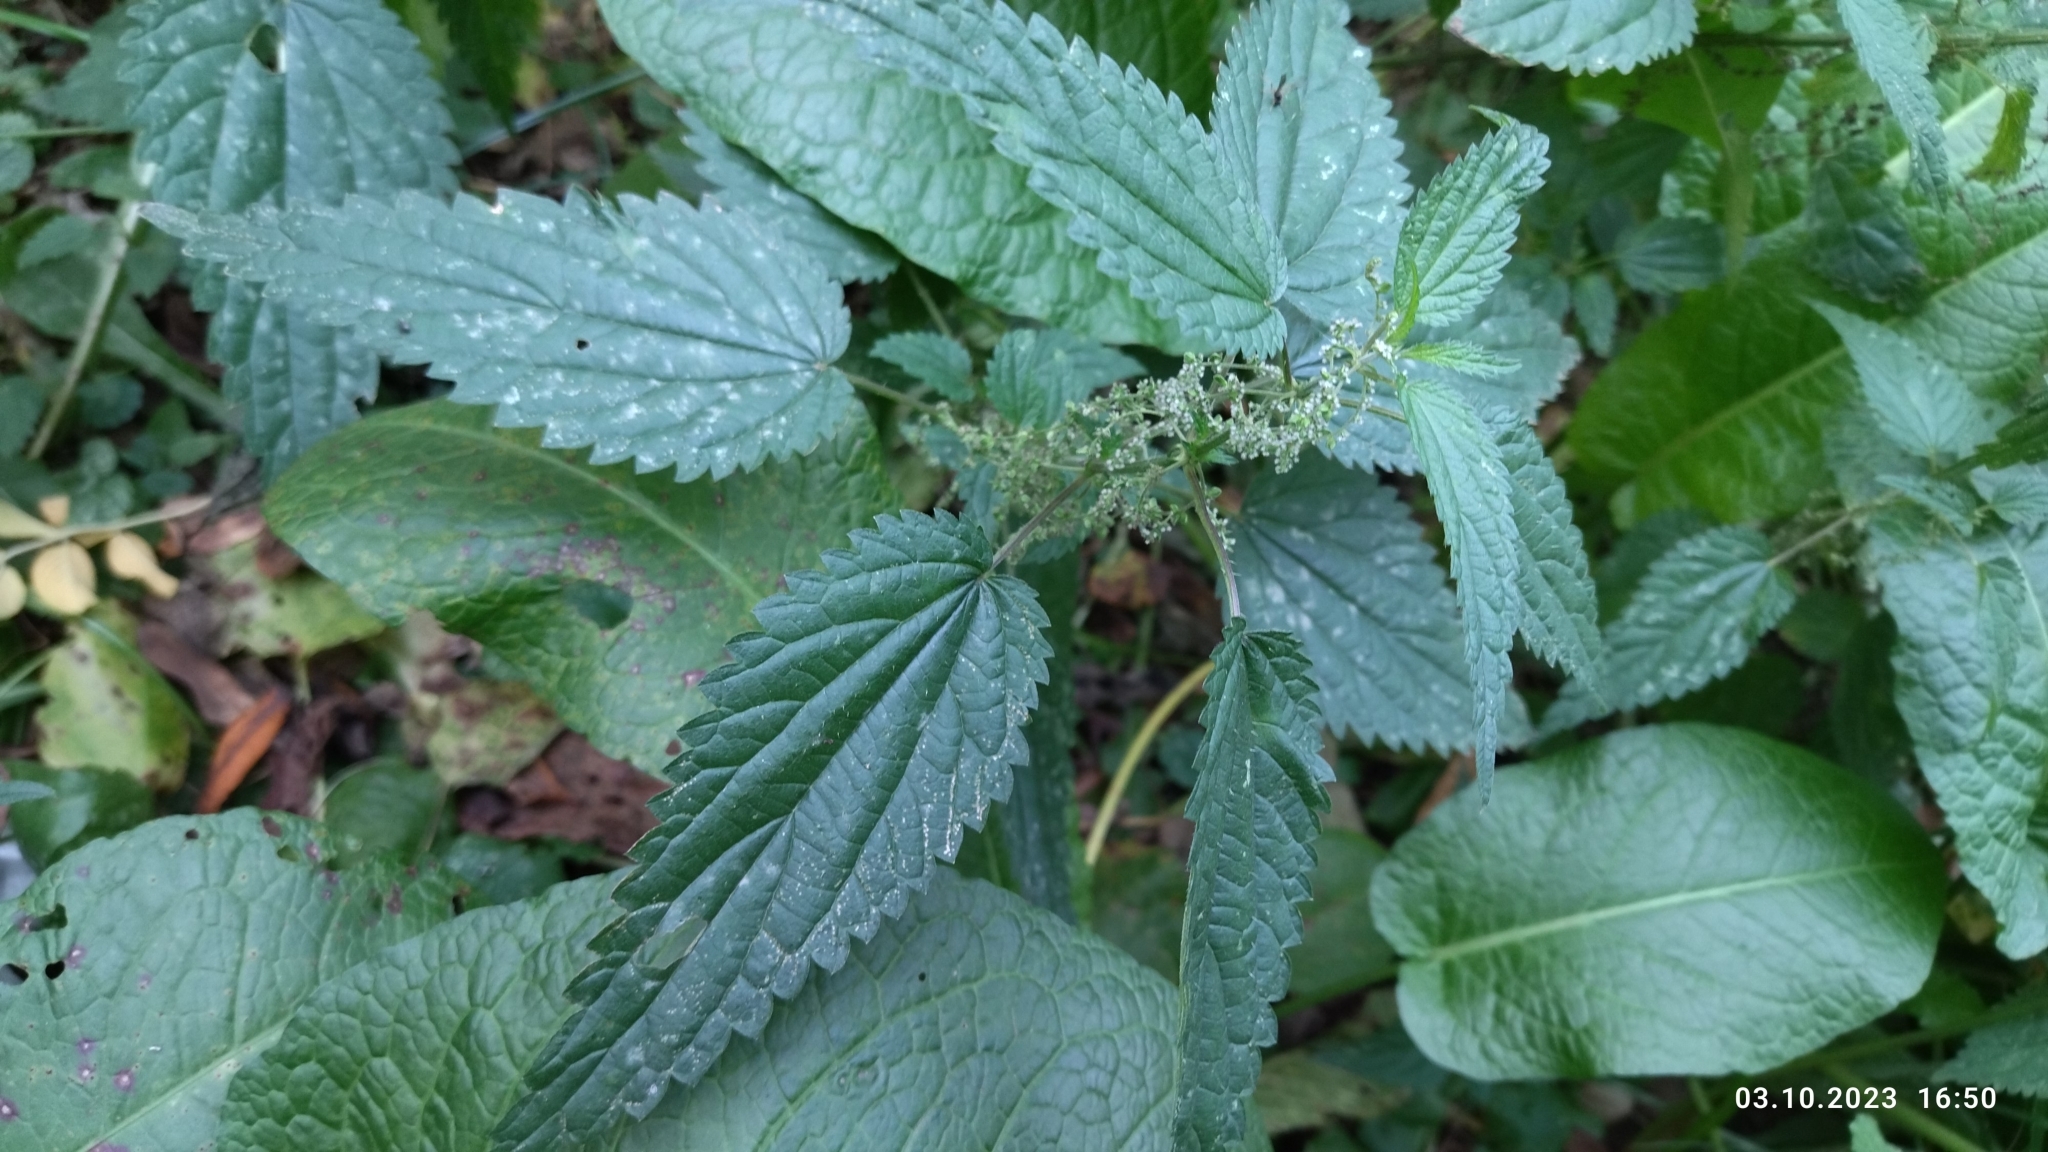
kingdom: Plantae
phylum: Tracheophyta
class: Magnoliopsida
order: Rosales
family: Urticaceae
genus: Urtica
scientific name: Urtica dioica
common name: Common nettle
